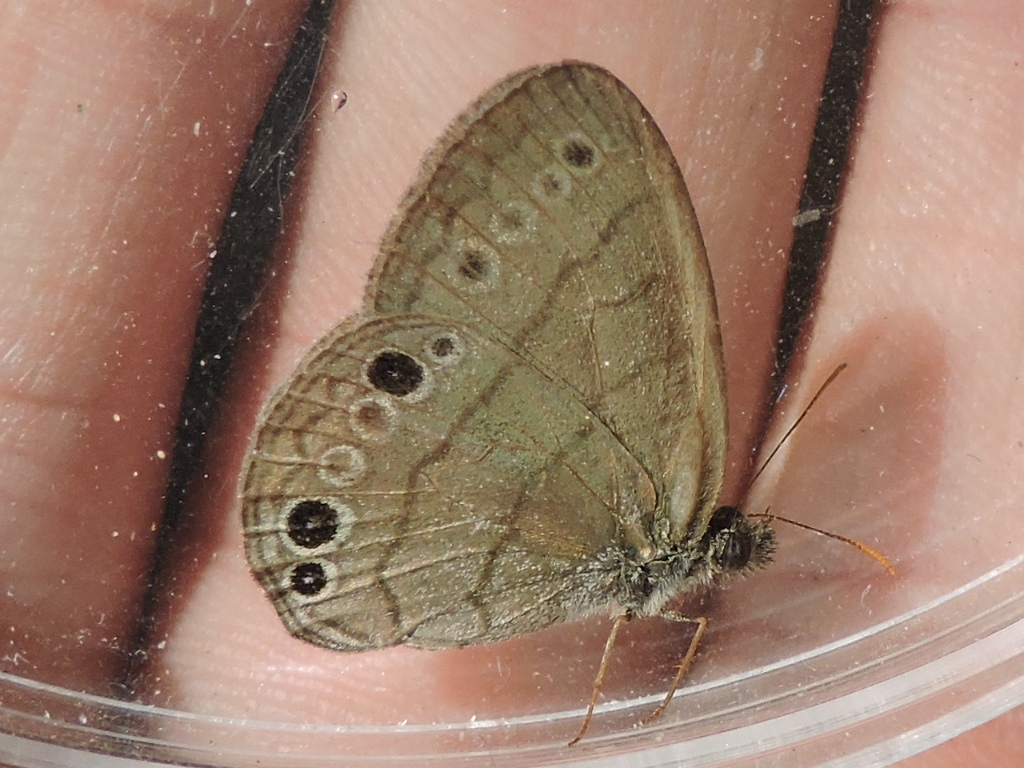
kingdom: Animalia
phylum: Arthropoda
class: Insecta
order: Lepidoptera
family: Nymphalidae
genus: Hermeuptychia
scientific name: Hermeuptychia intricata
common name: Intricate satyr
